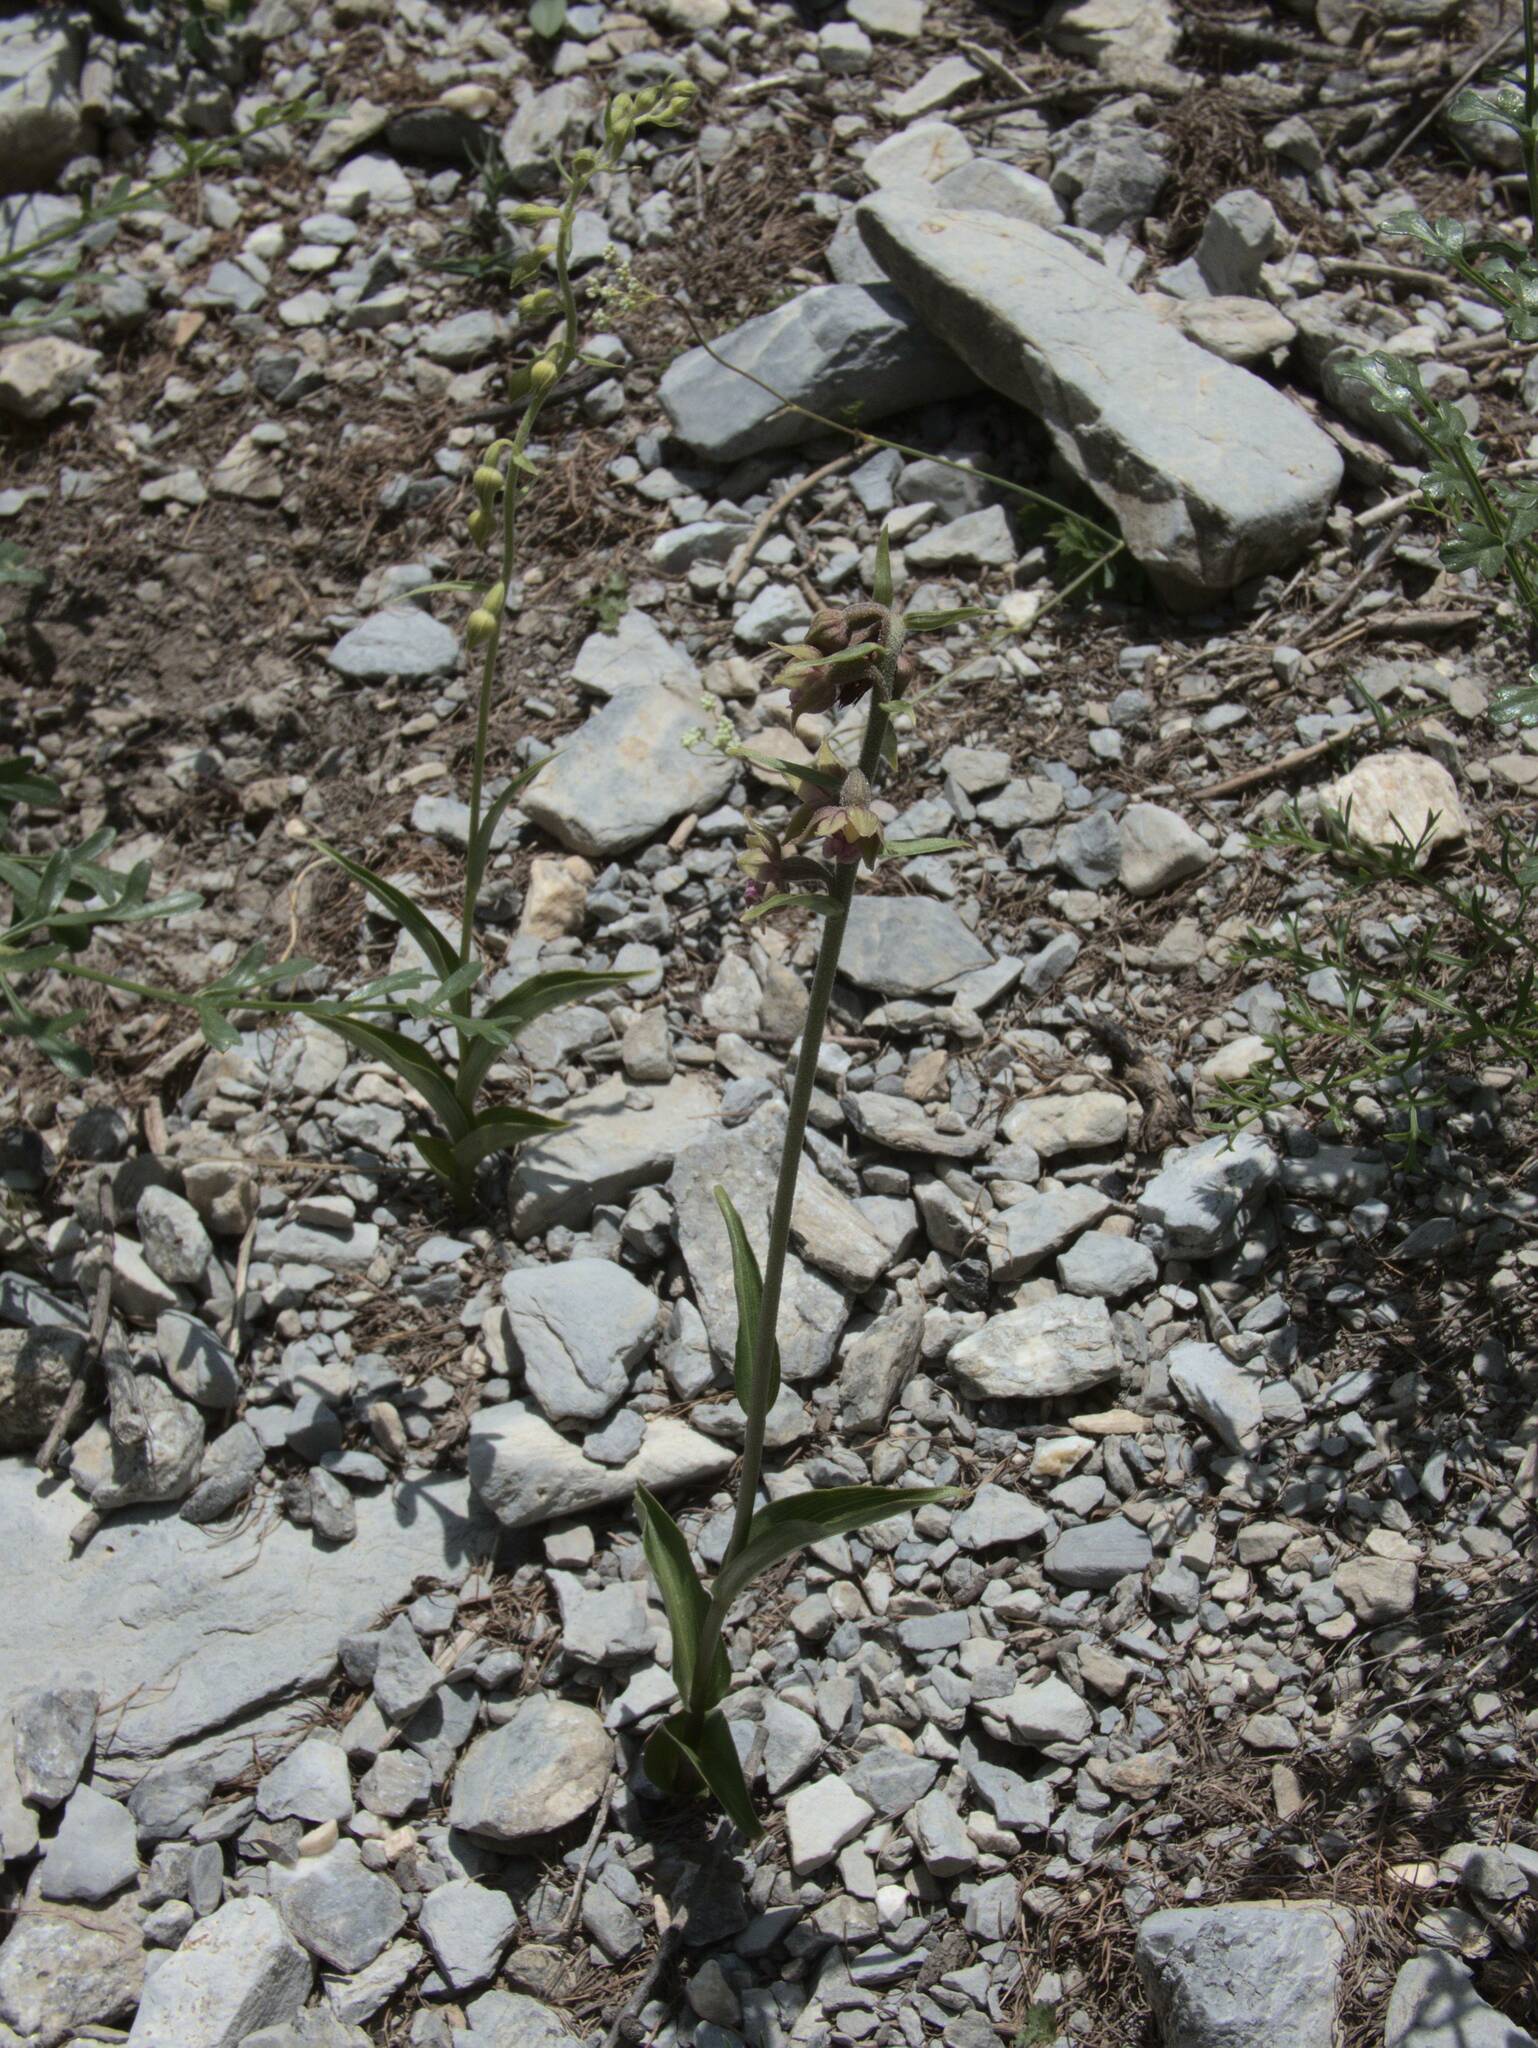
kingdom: Plantae
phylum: Tracheophyta
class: Liliopsida
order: Asparagales
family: Orchidaceae
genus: Epipactis
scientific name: Epipactis atrorubens
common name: Dark-red helleborine
